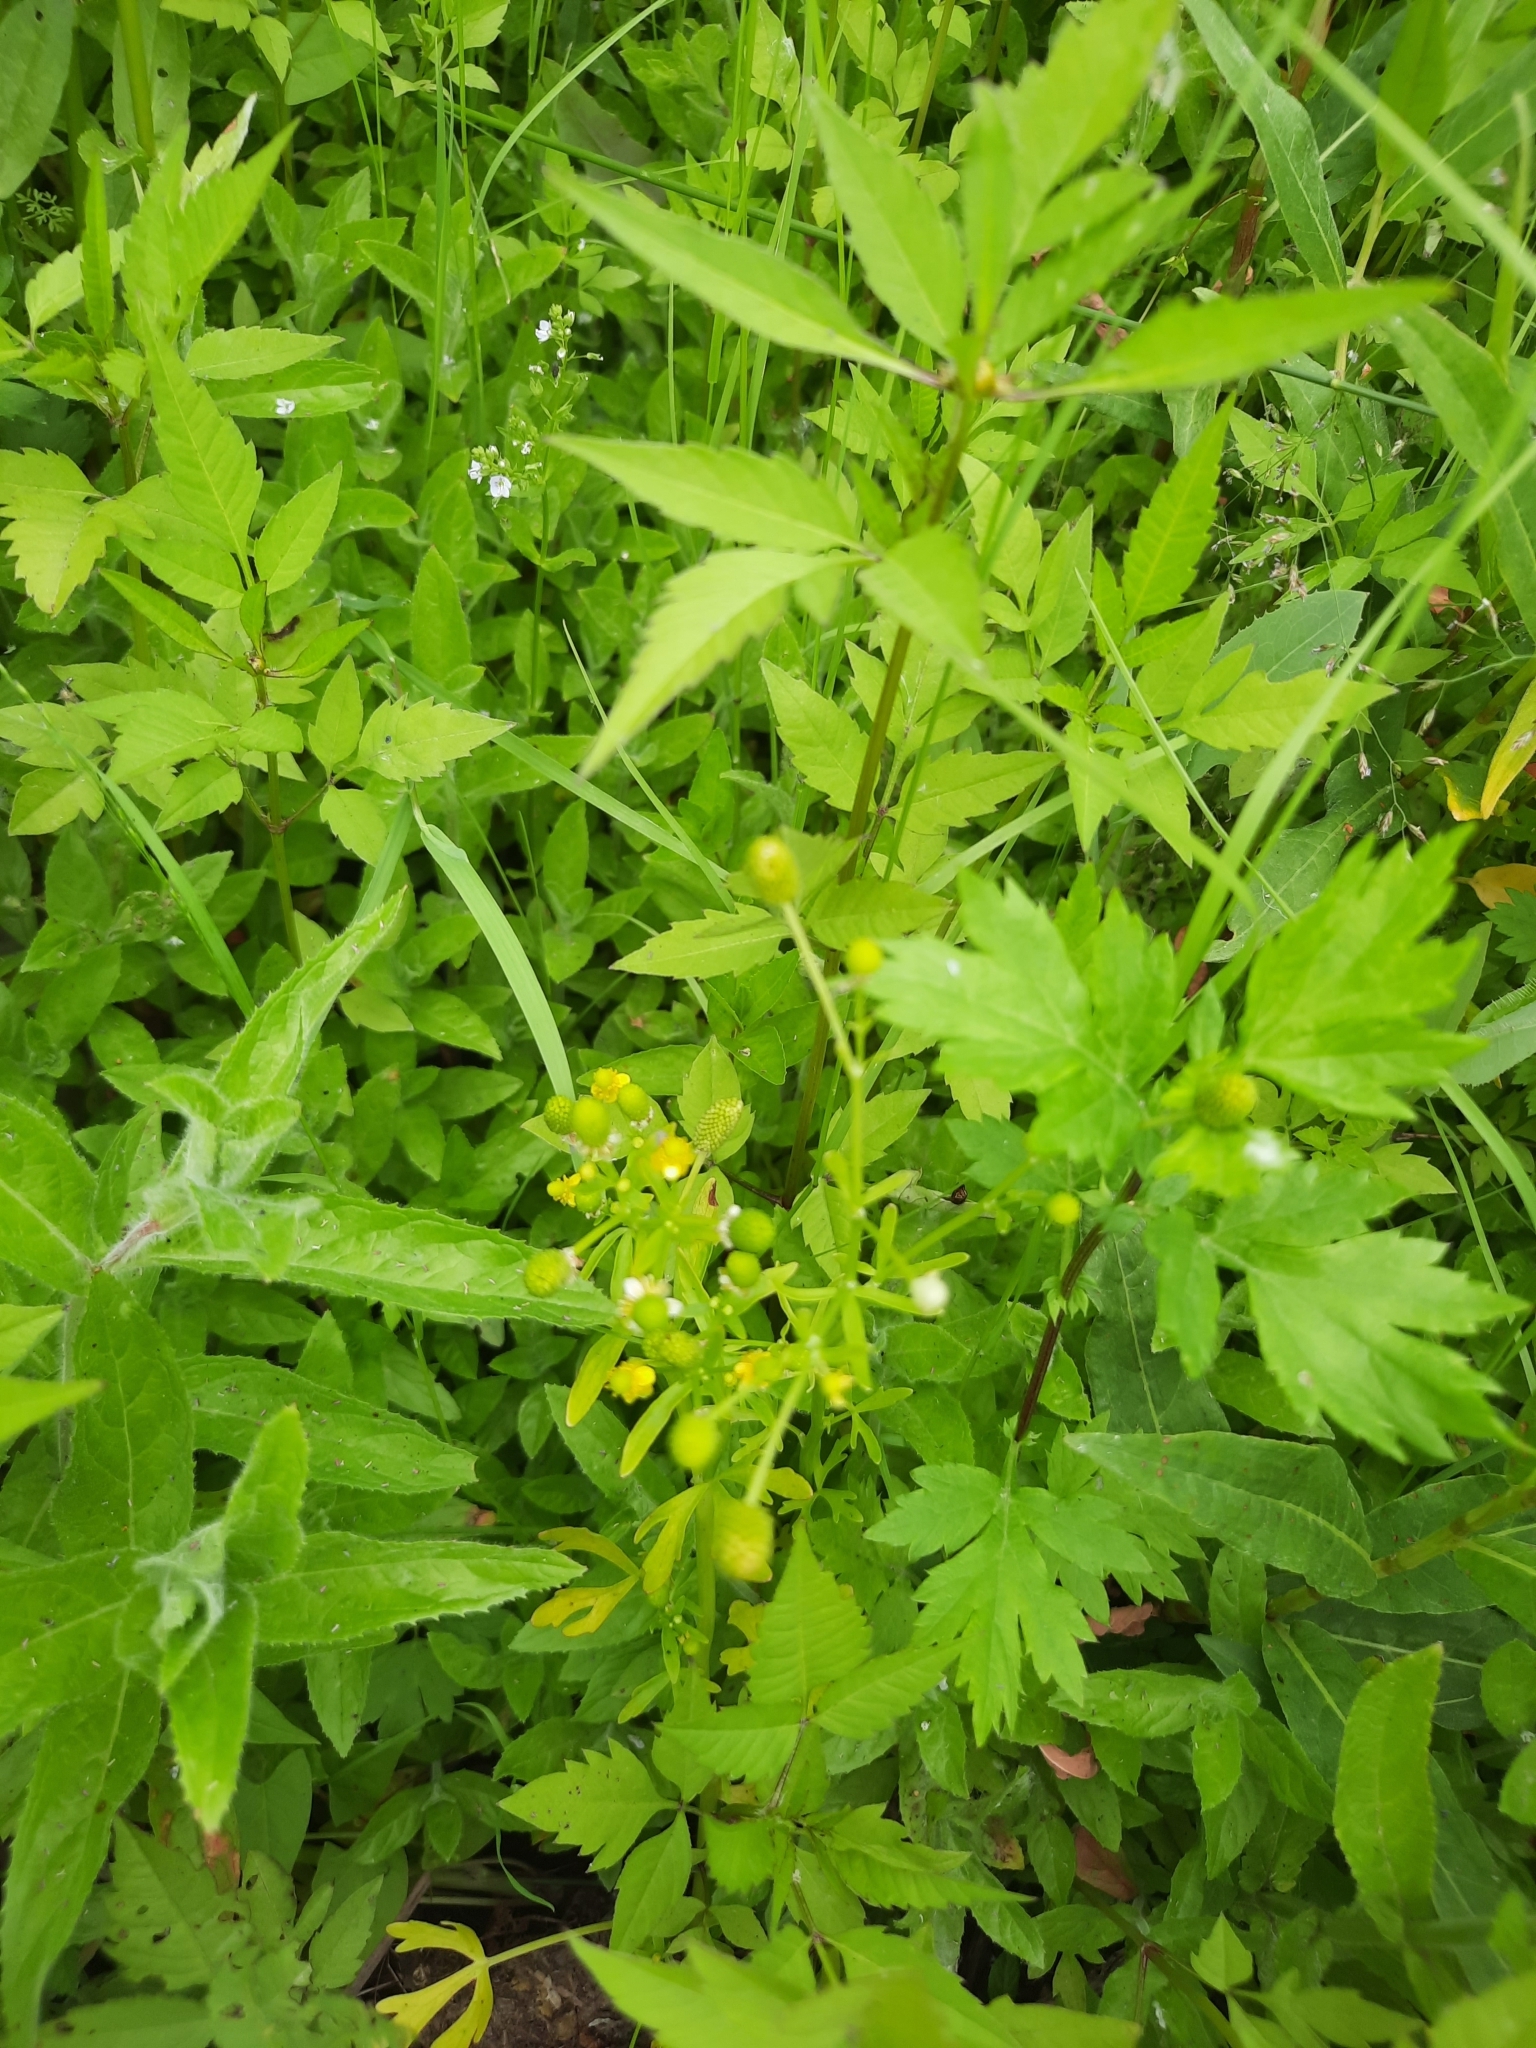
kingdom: Plantae
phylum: Tracheophyta
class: Magnoliopsida
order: Ranunculales
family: Ranunculaceae
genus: Ranunculus
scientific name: Ranunculus sceleratus
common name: Celery-leaved buttercup
